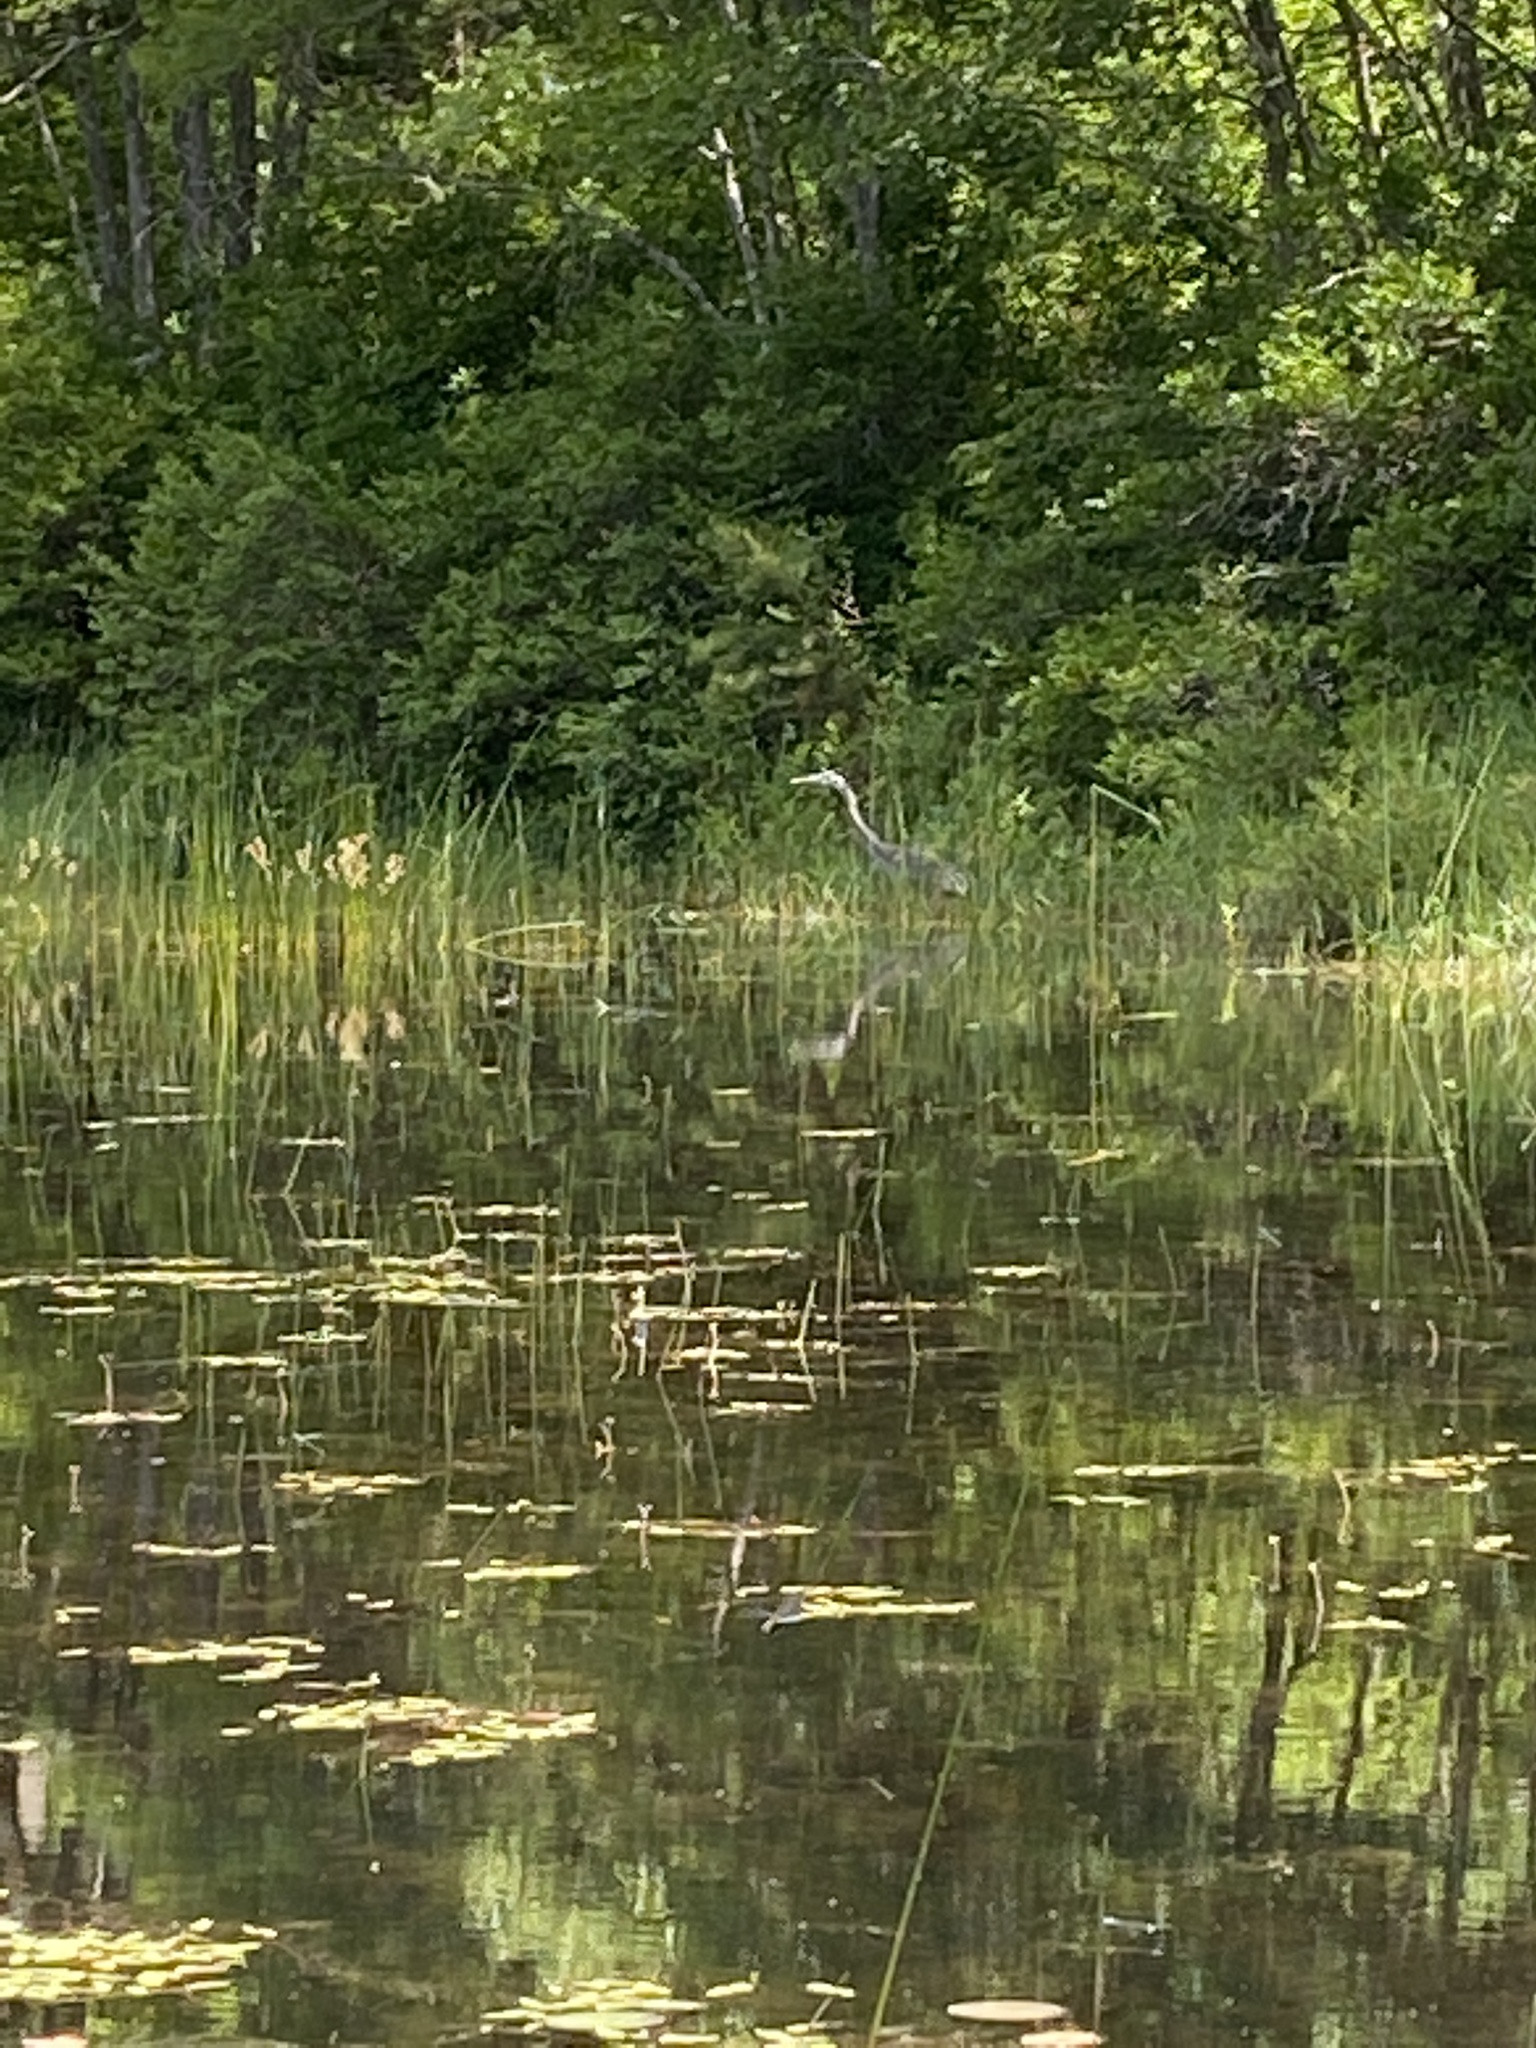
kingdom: Animalia
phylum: Chordata
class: Aves
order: Pelecaniformes
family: Ardeidae
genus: Ardea
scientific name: Ardea herodias
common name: Great blue heron
